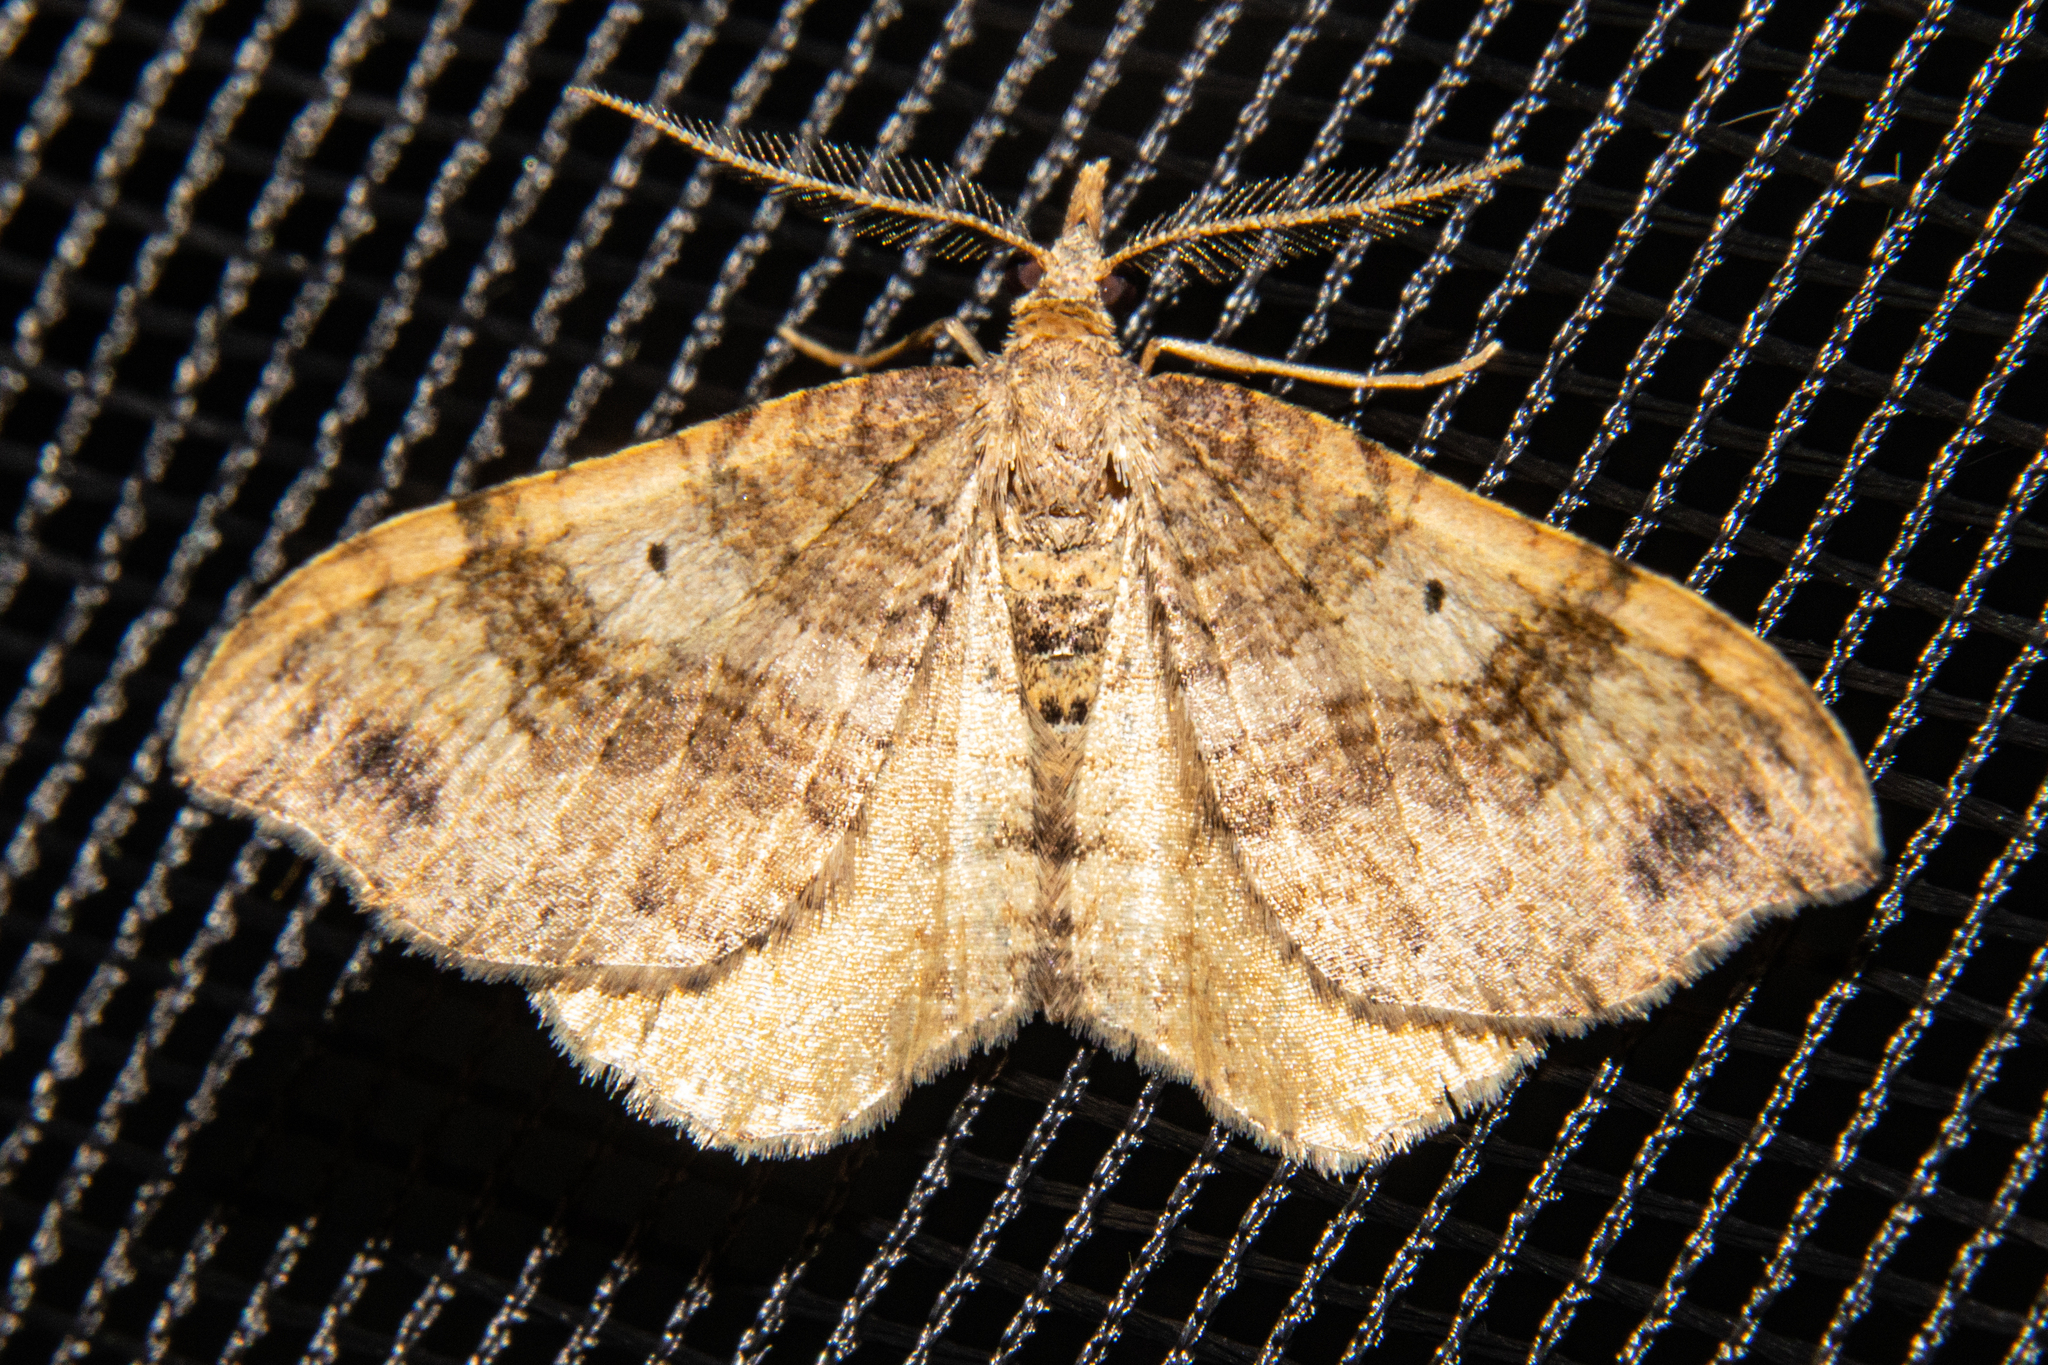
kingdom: Animalia
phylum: Arthropoda
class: Insecta
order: Lepidoptera
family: Geometridae
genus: Homodotis
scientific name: Homodotis megaspilata
